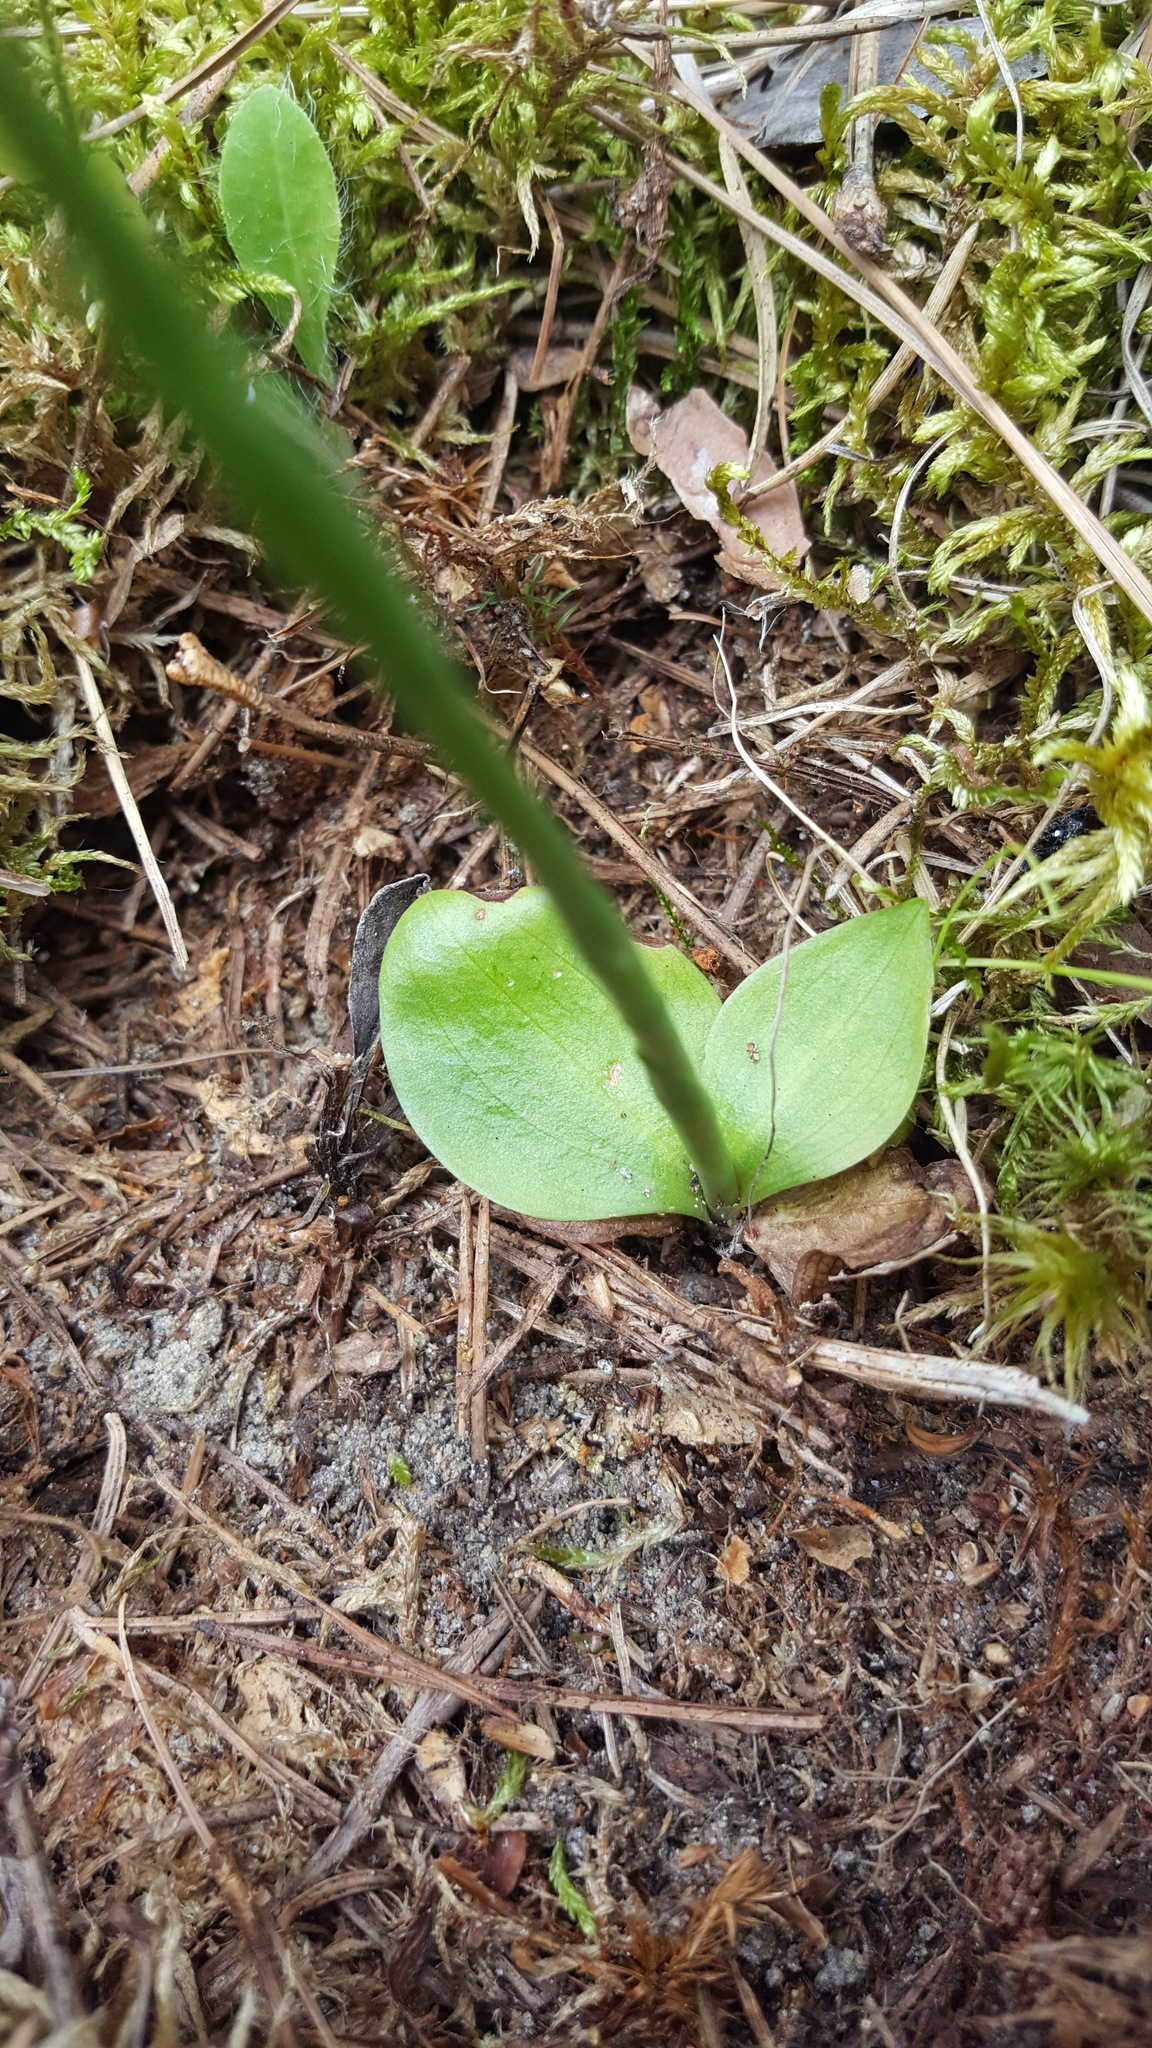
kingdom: Plantae
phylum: Tracheophyta
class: Liliopsida
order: Asparagales
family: Orchidaceae
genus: Spiranthes
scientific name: Spiranthes lacera
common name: Northern slender ladies'-tresses
